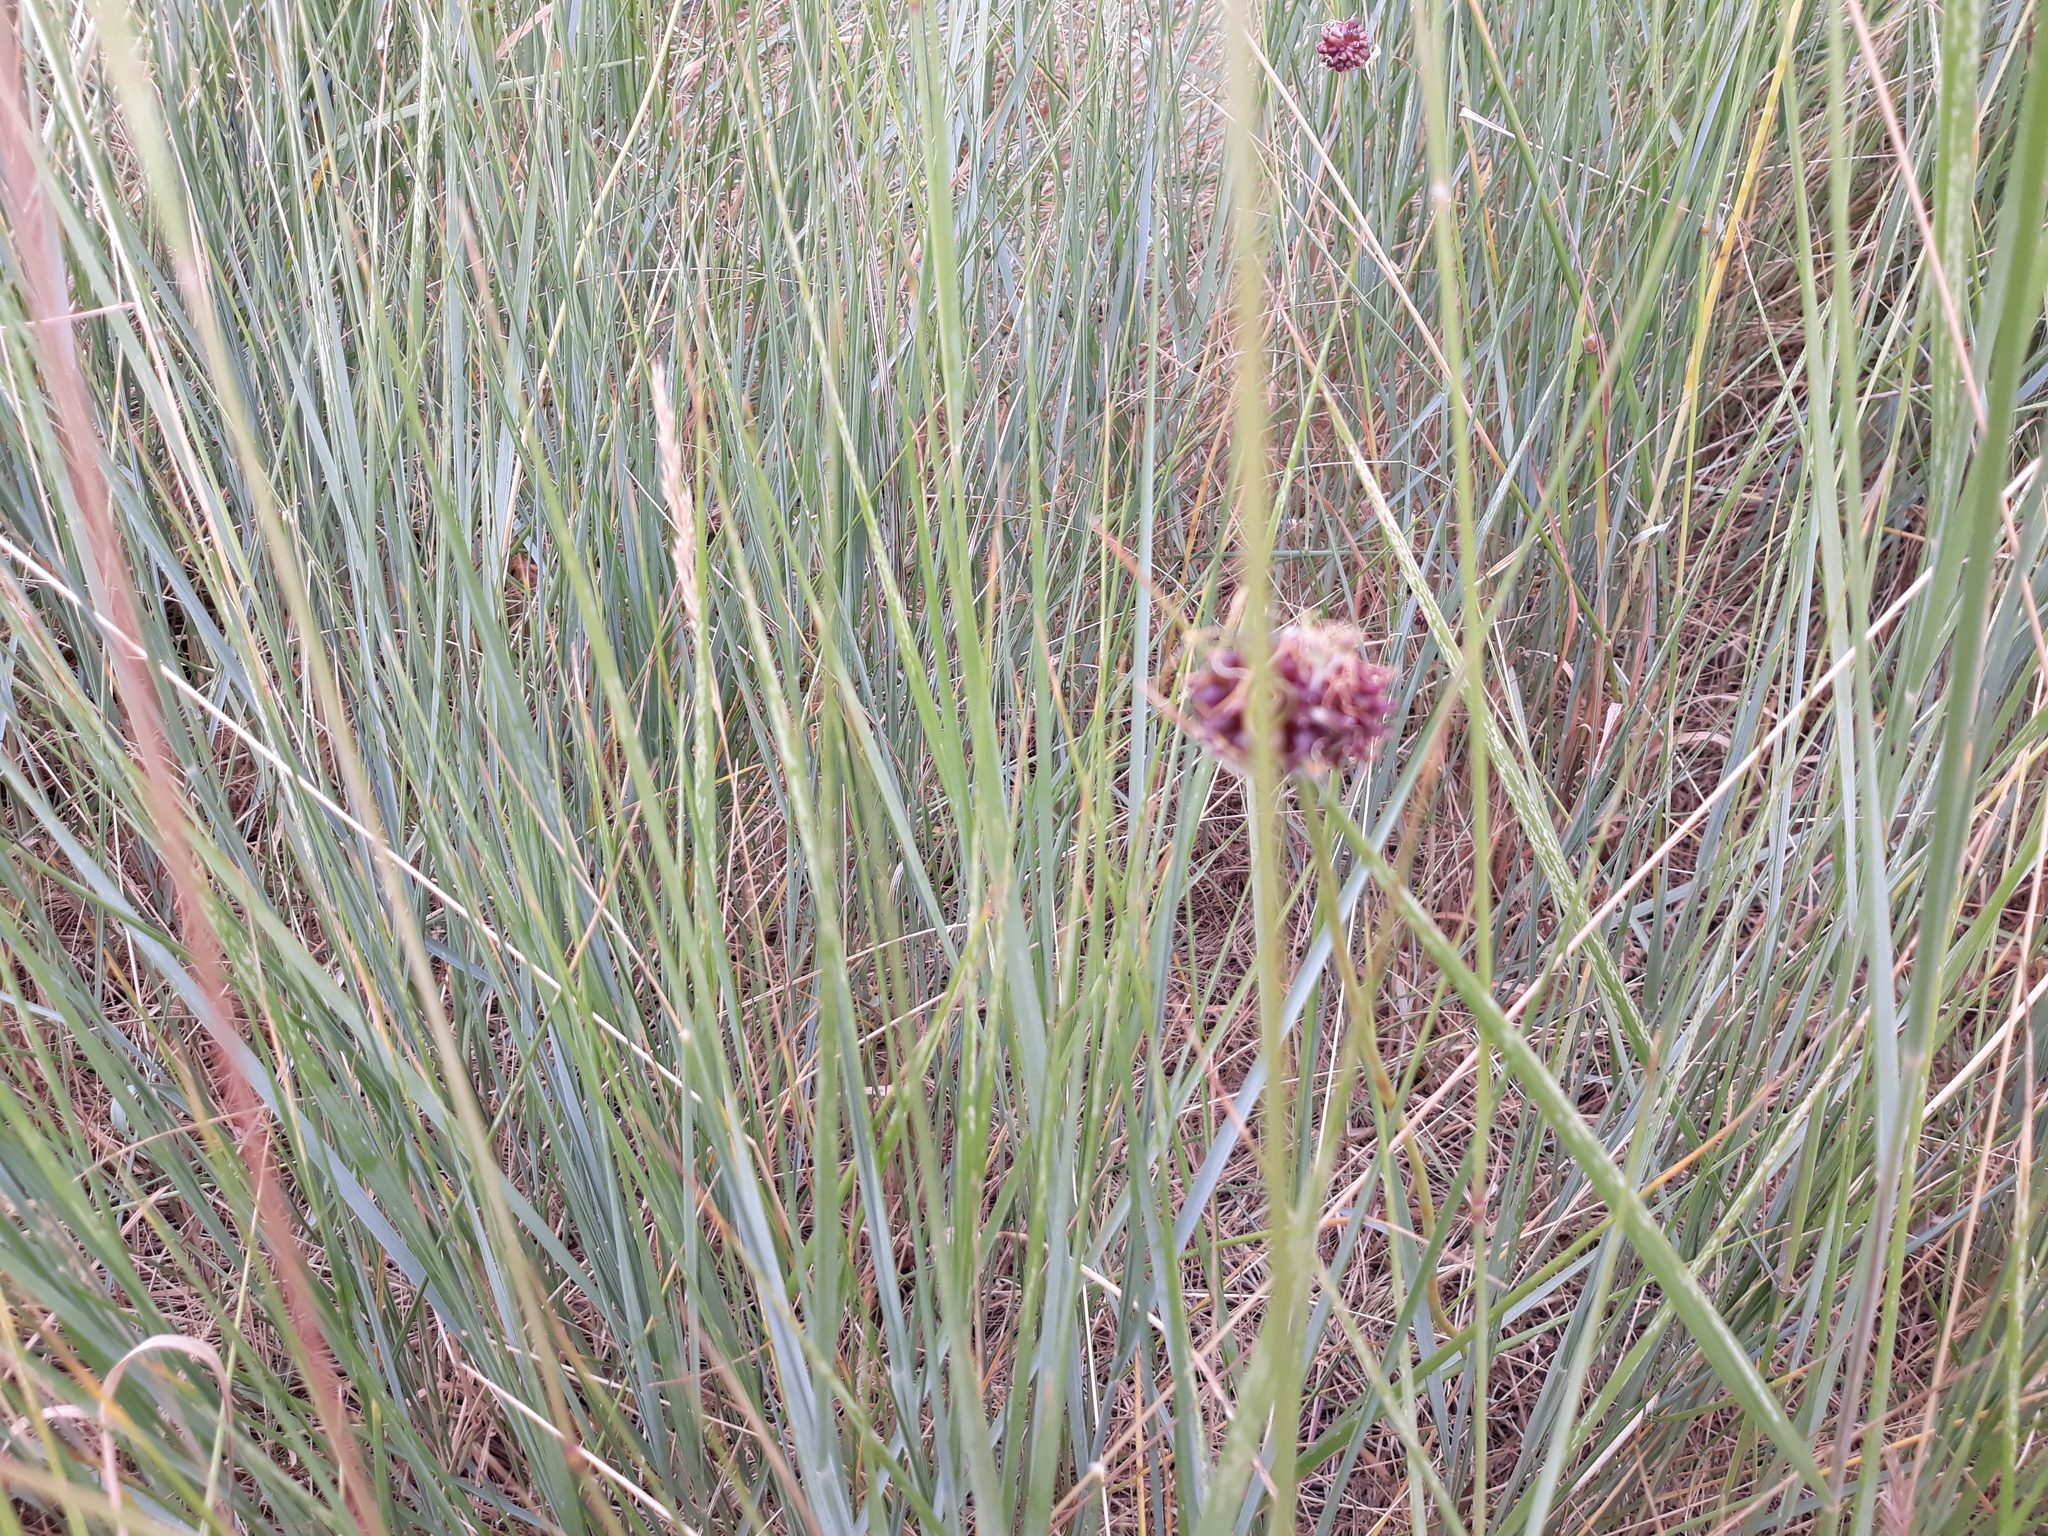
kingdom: Plantae
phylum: Tracheophyta
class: Liliopsida
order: Asparagales
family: Amaryllidaceae
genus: Allium
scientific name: Allium vineale
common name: Crow garlic
